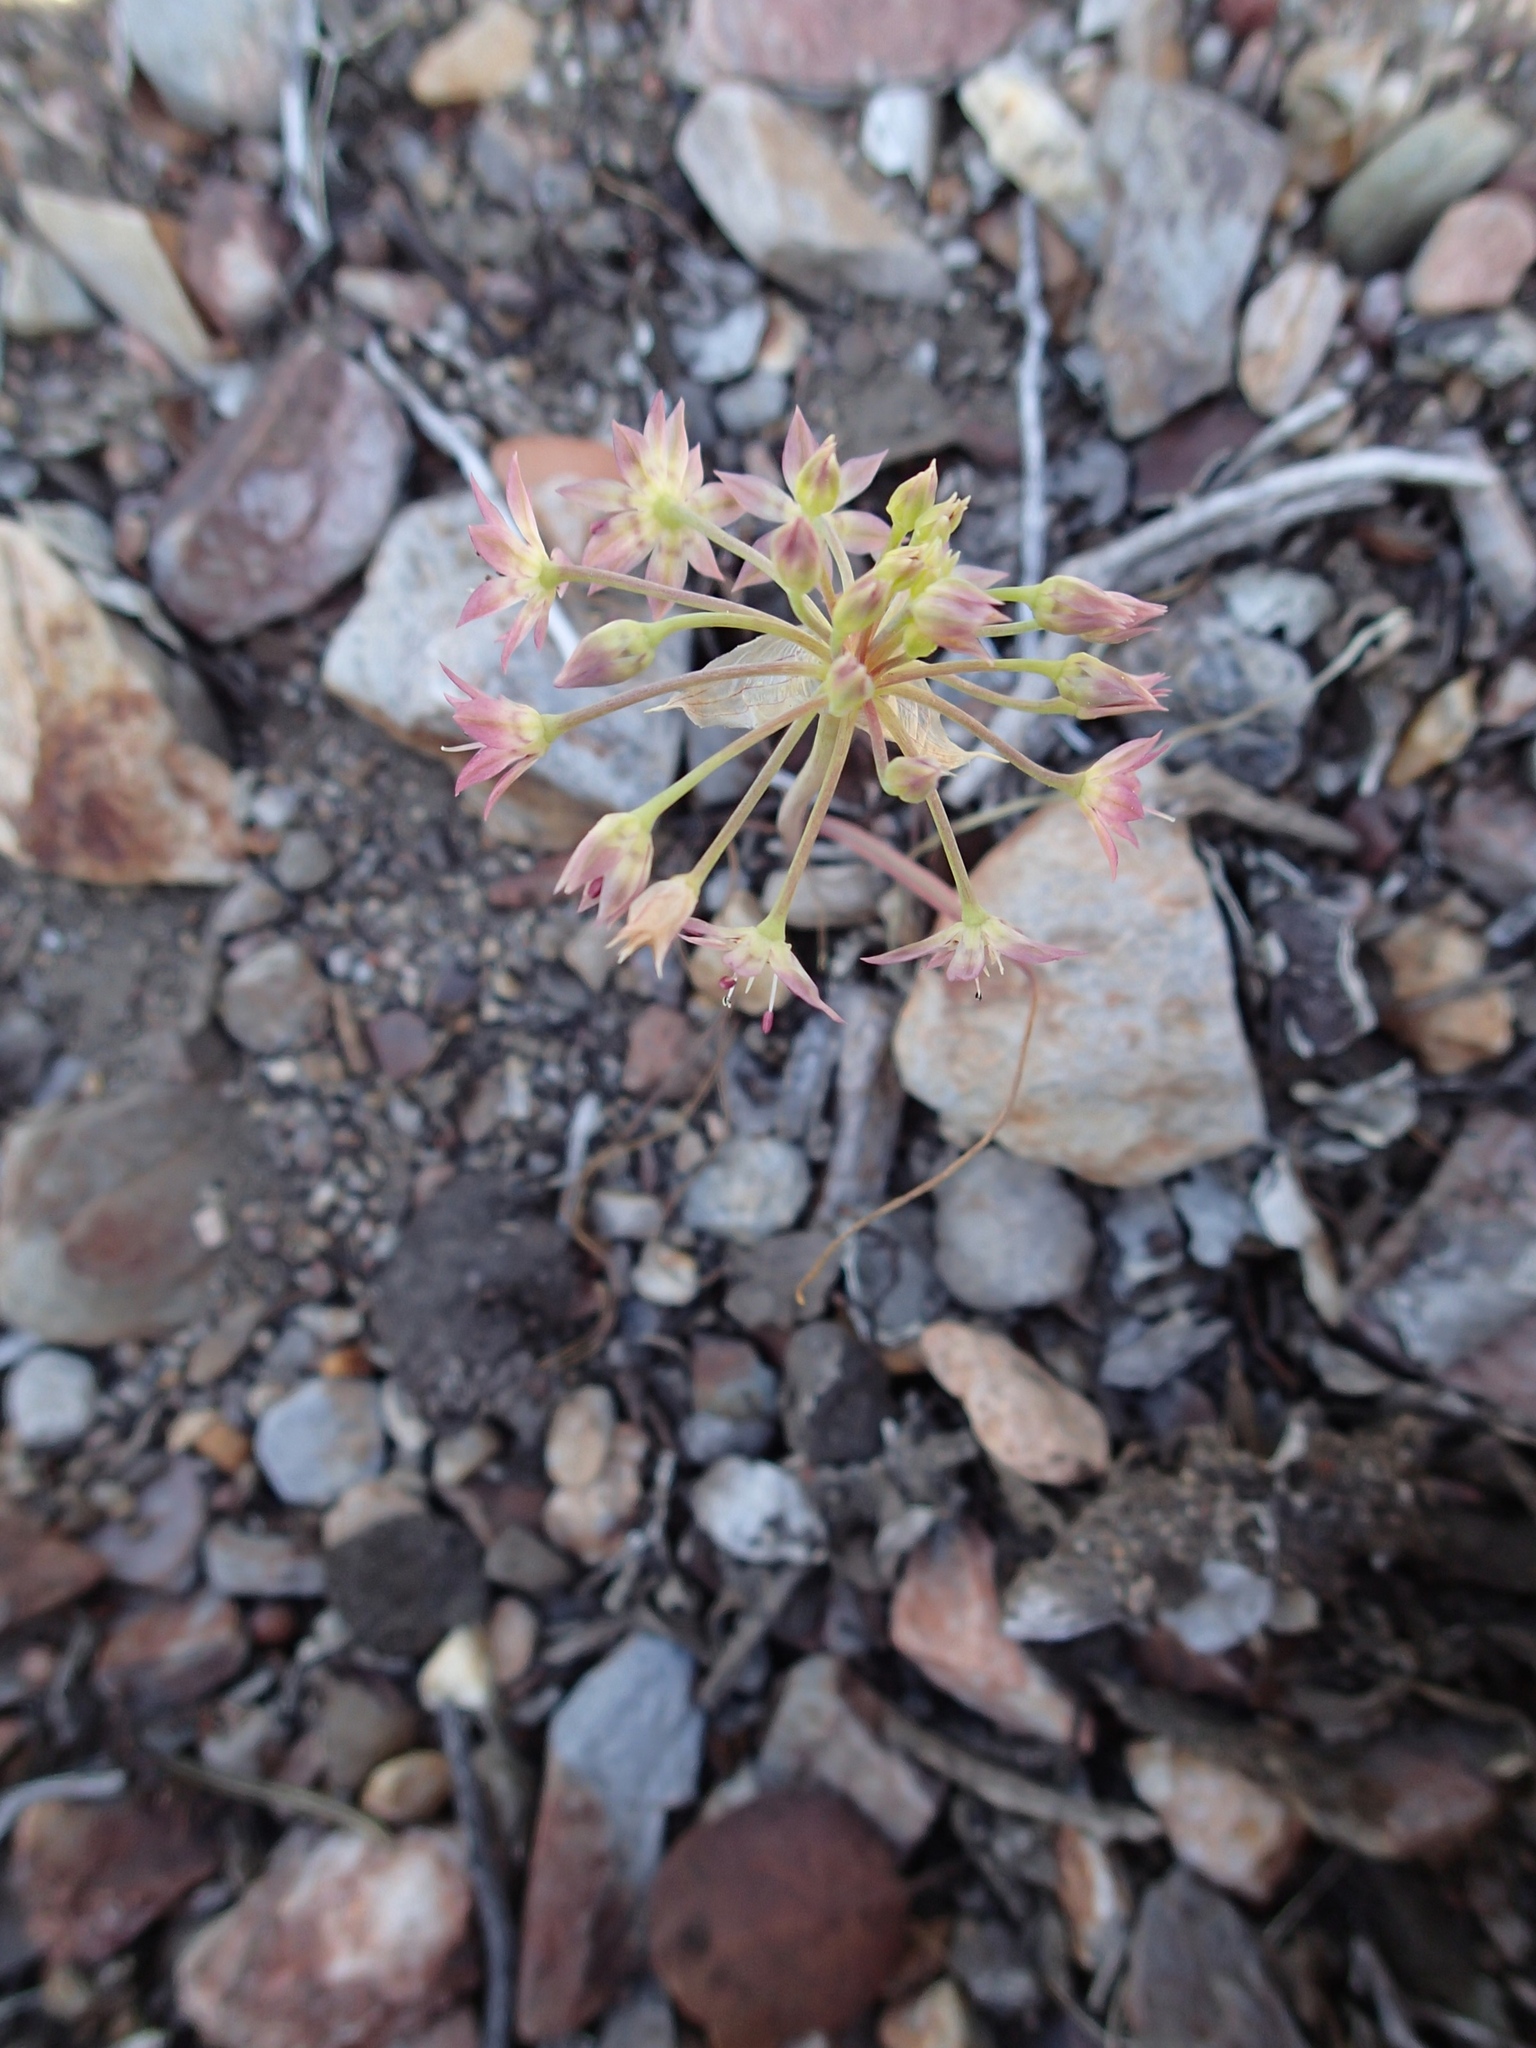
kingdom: Plantae
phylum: Tracheophyta
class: Liliopsida
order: Asparagales
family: Amaryllidaceae
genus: Allium
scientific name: Allium campanulatum
